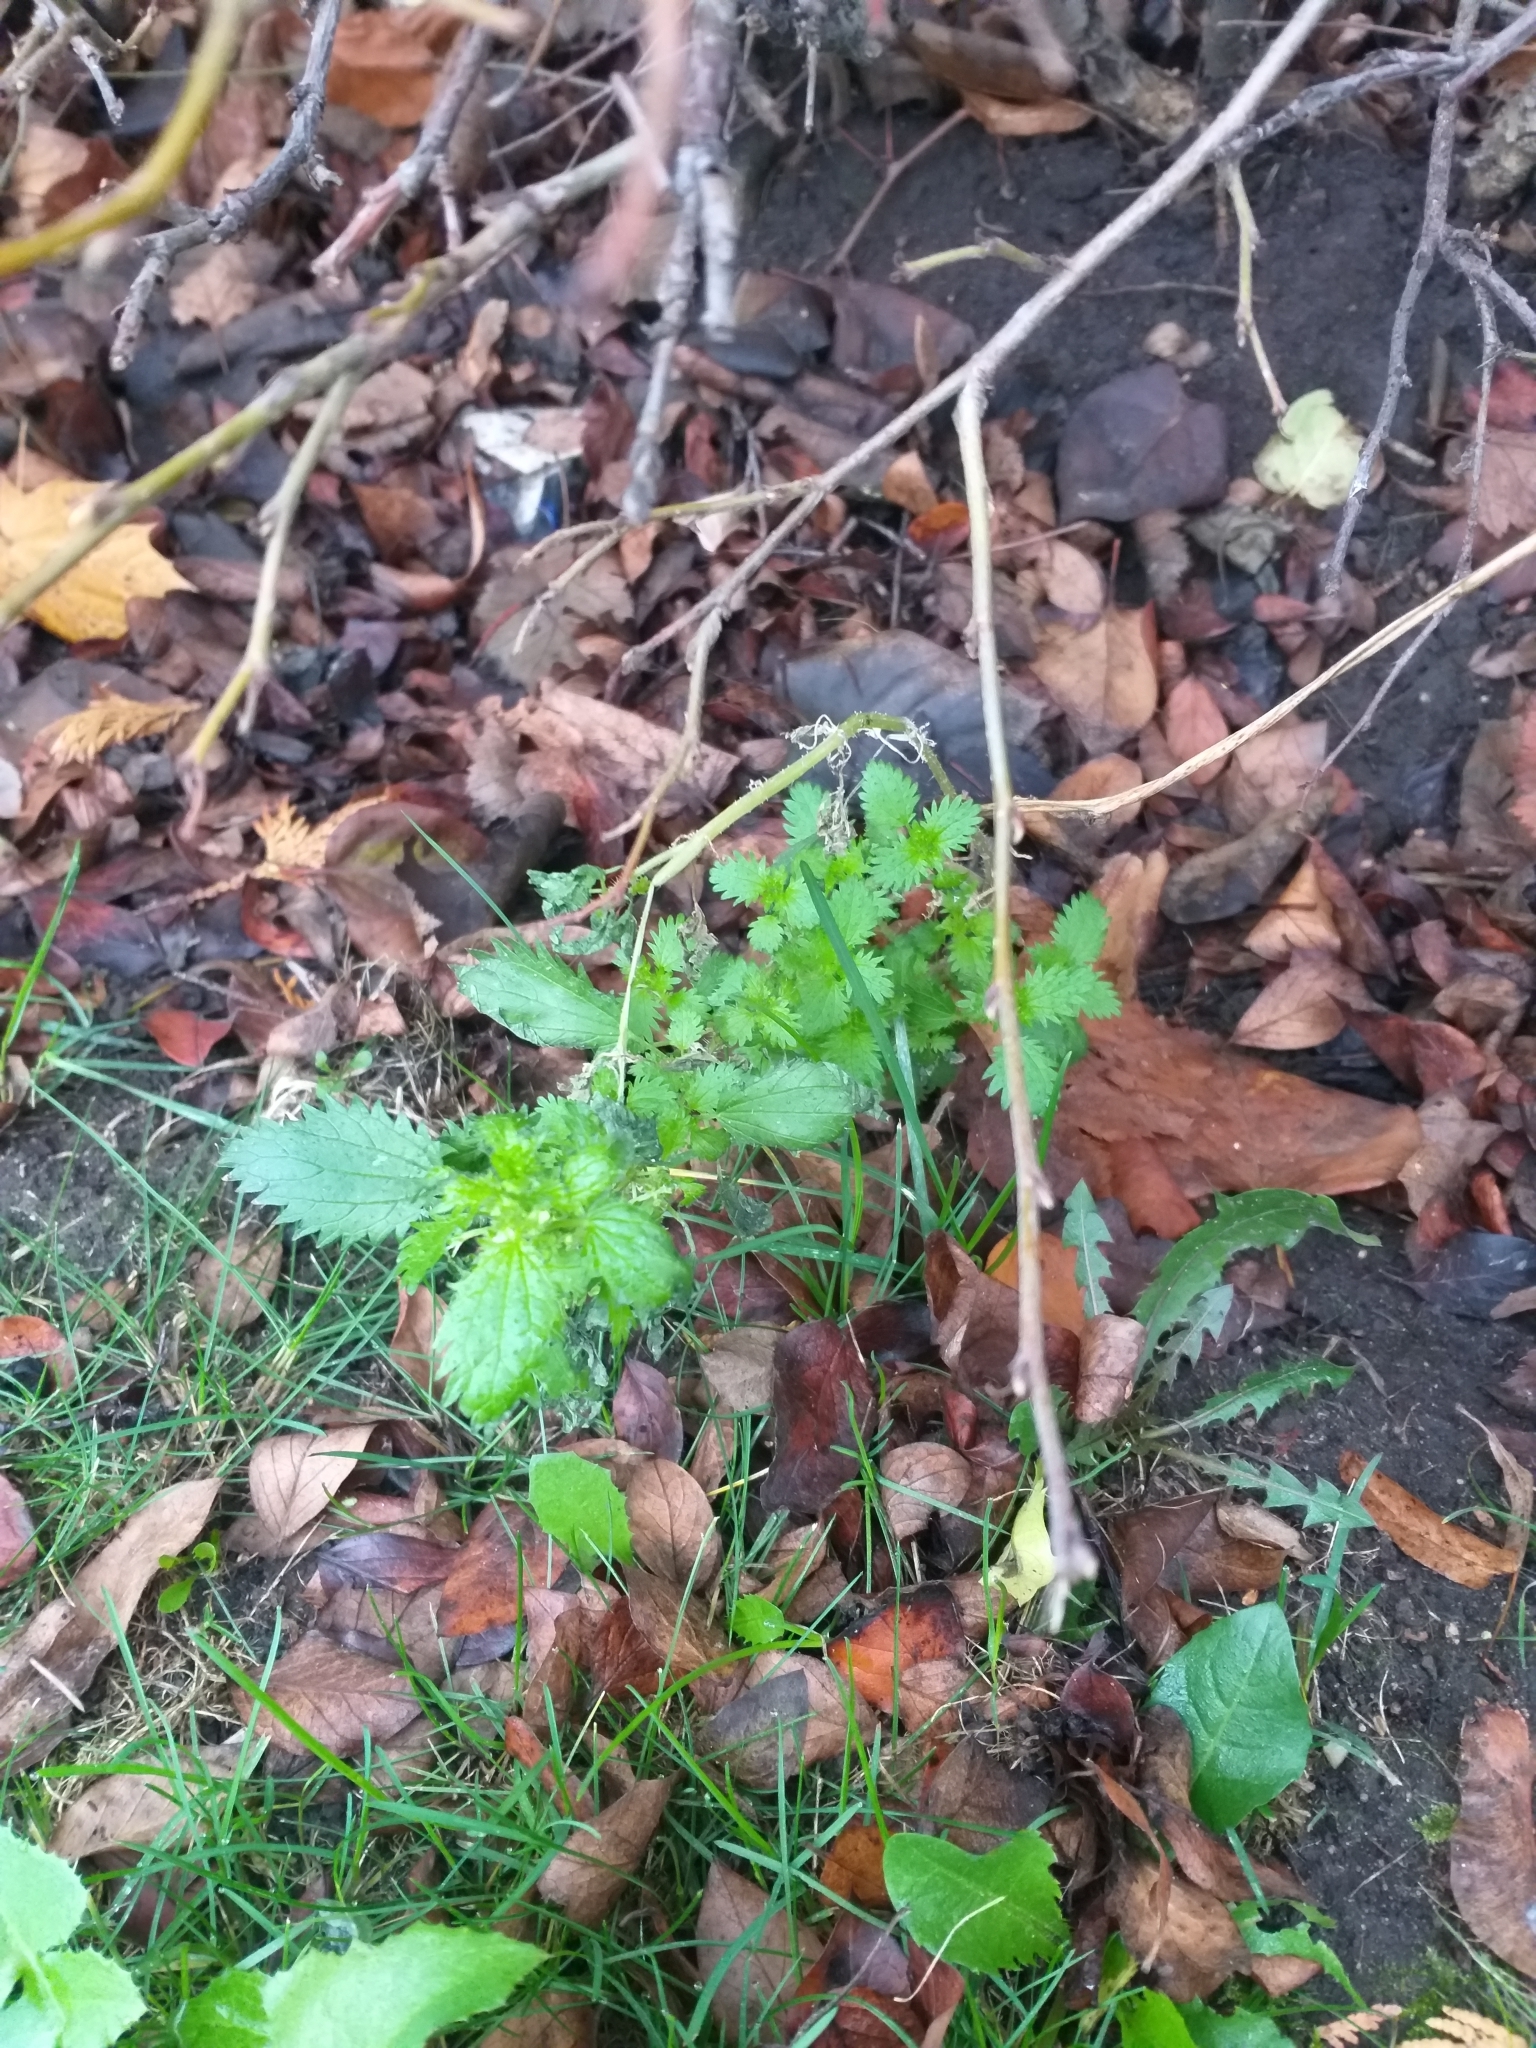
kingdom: Plantae
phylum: Tracheophyta
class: Magnoliopsida
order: Rosales
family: Urticaceae
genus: Urtica
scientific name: Urtica urens
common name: Dwarf nettle
